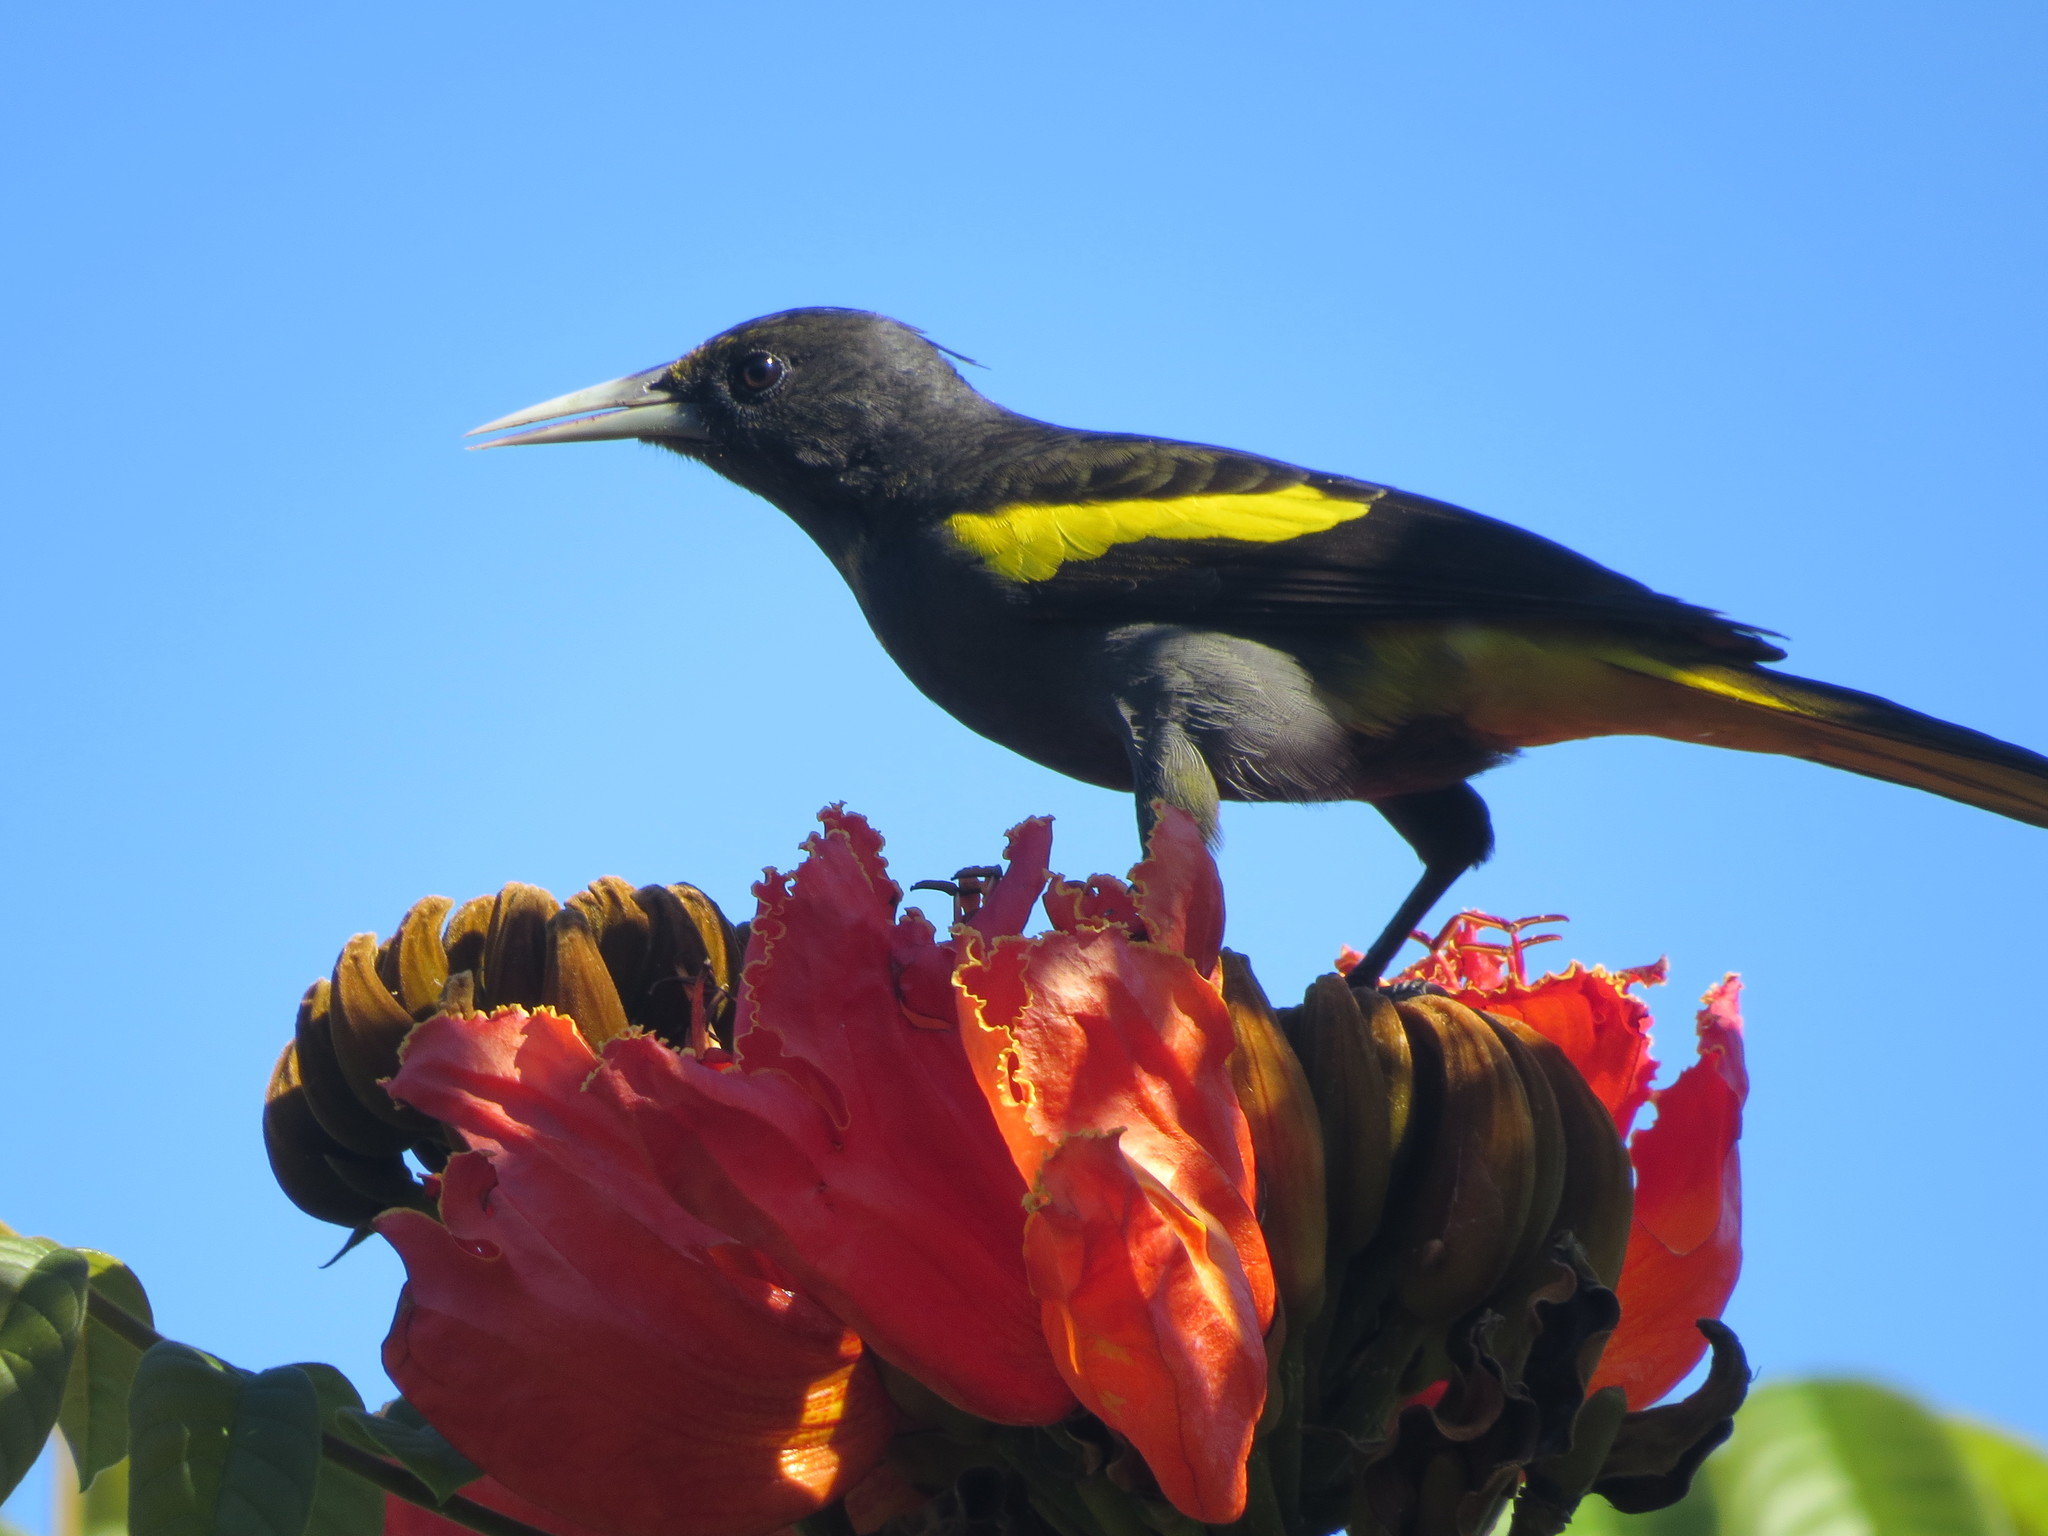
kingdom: Animalia
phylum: Chordata
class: Aves
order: Passeriformes
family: Icteridae
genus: Cacicus
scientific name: Cacicus melanicterus
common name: Yellow-winged cacique
